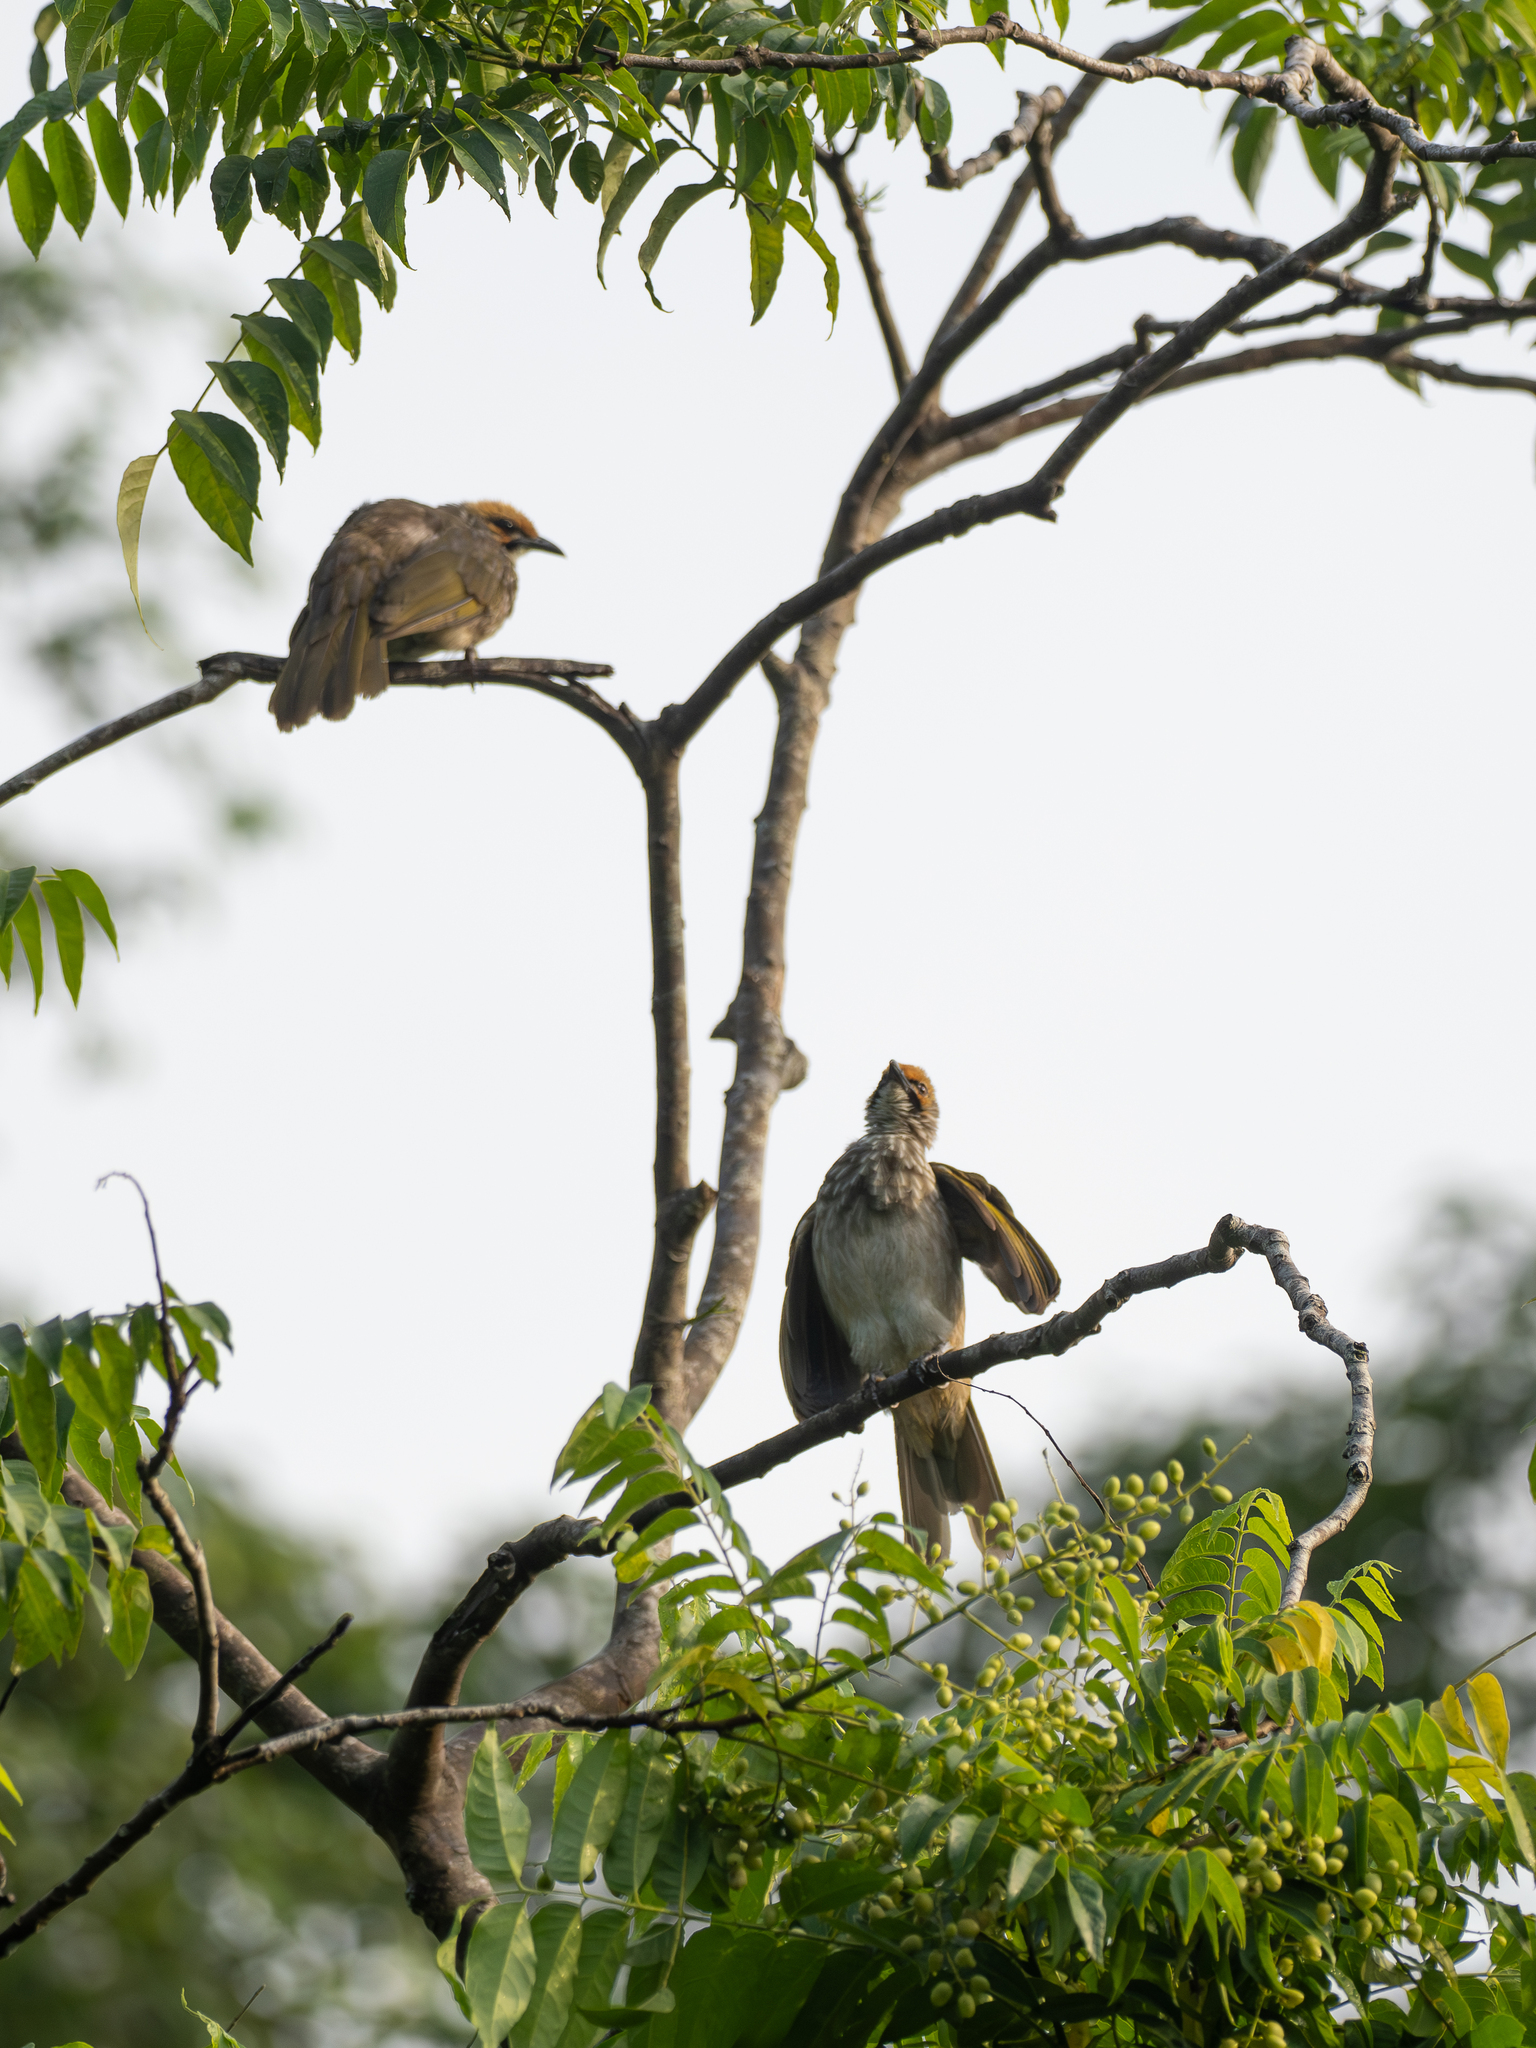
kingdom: Animalia
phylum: Chordata
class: Aves
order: Passeriformes
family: Pycnonotidae
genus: Pycnonotus
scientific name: Pycnonotus zeylanicus
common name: Straw-headed bulbul
